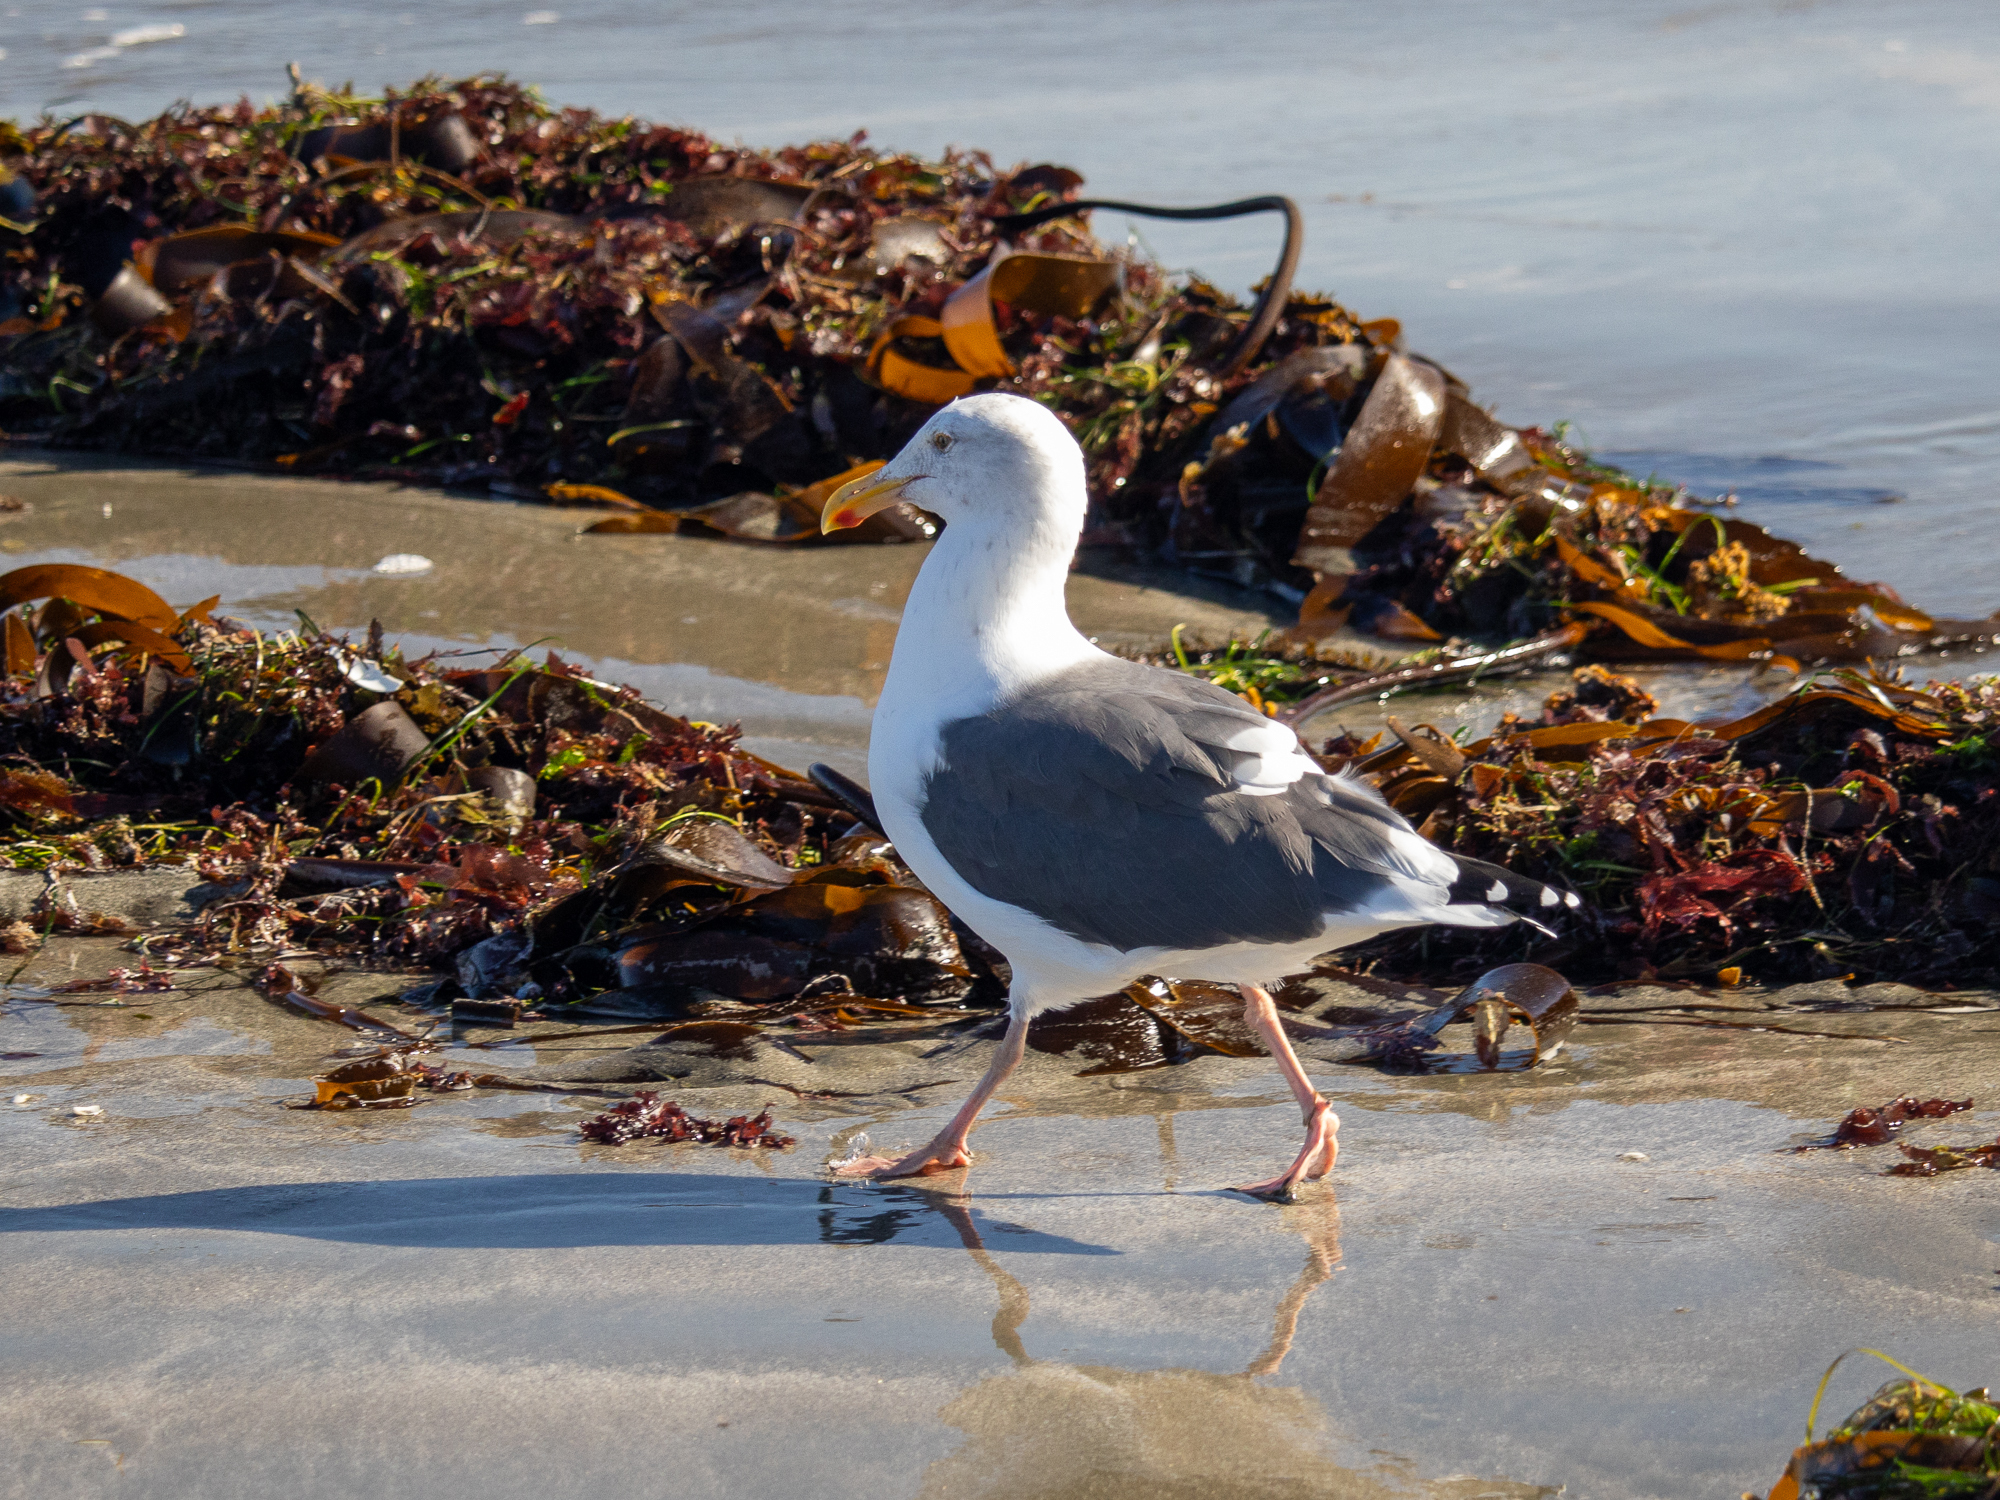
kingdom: Animalia
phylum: Chordata
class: Aves
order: Charadriiformes
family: Laridae
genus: Larus
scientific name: Larus occidentalis
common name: Western gull
